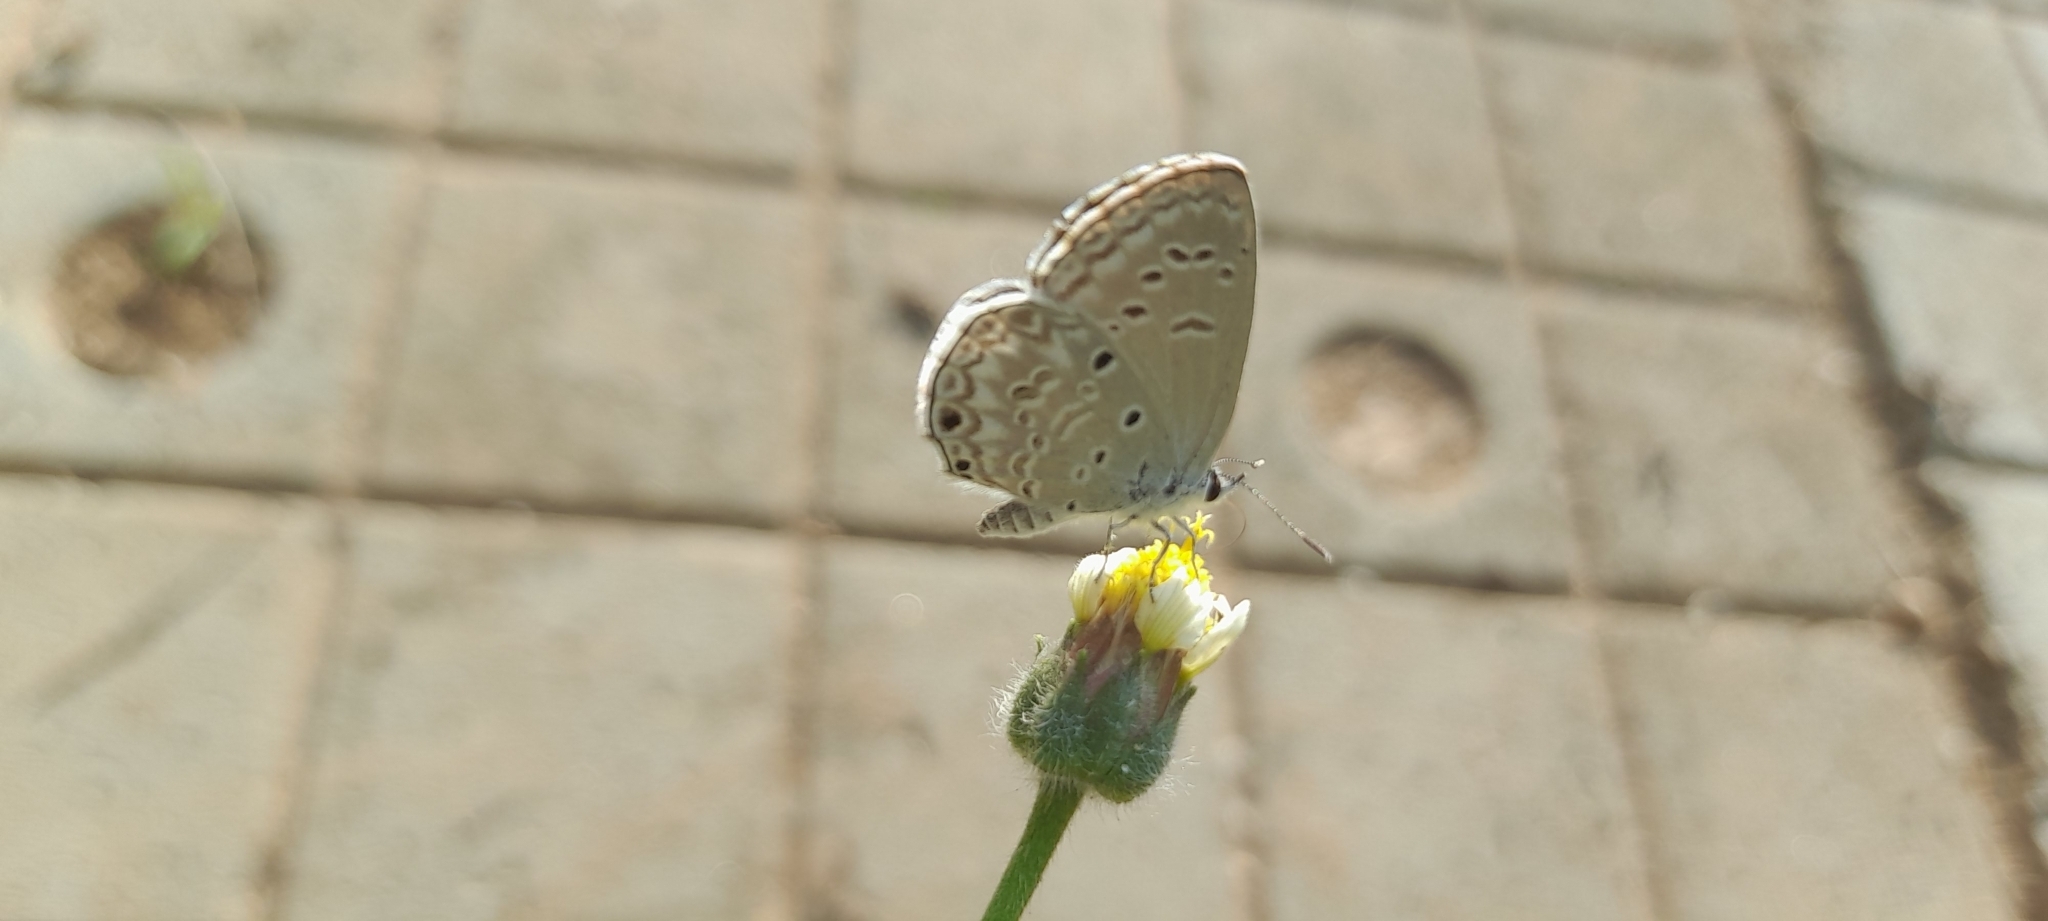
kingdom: Animalia
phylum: Arthropoda
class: Insecta
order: Lepidoptera
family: Lycaenidae
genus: Chilades
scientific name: Chilades laius
